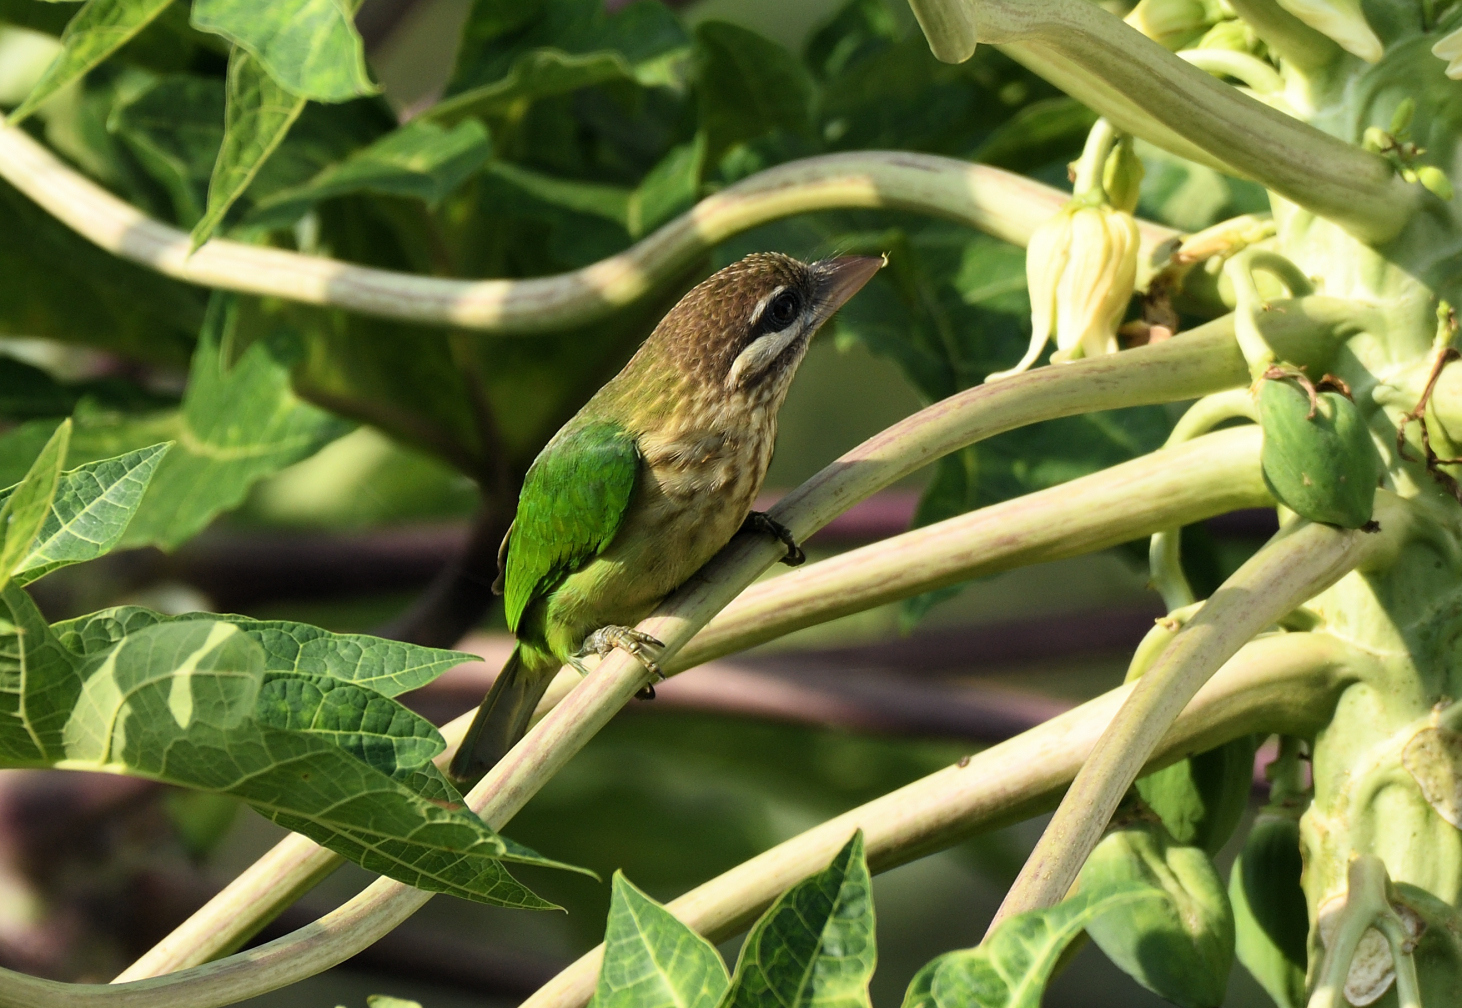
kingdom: Animalia
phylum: Chordata
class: Aves
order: Piciformes
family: Megalaimidae
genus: Psilopogon
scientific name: Psilopogon viridis
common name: White-cheeked barbet
